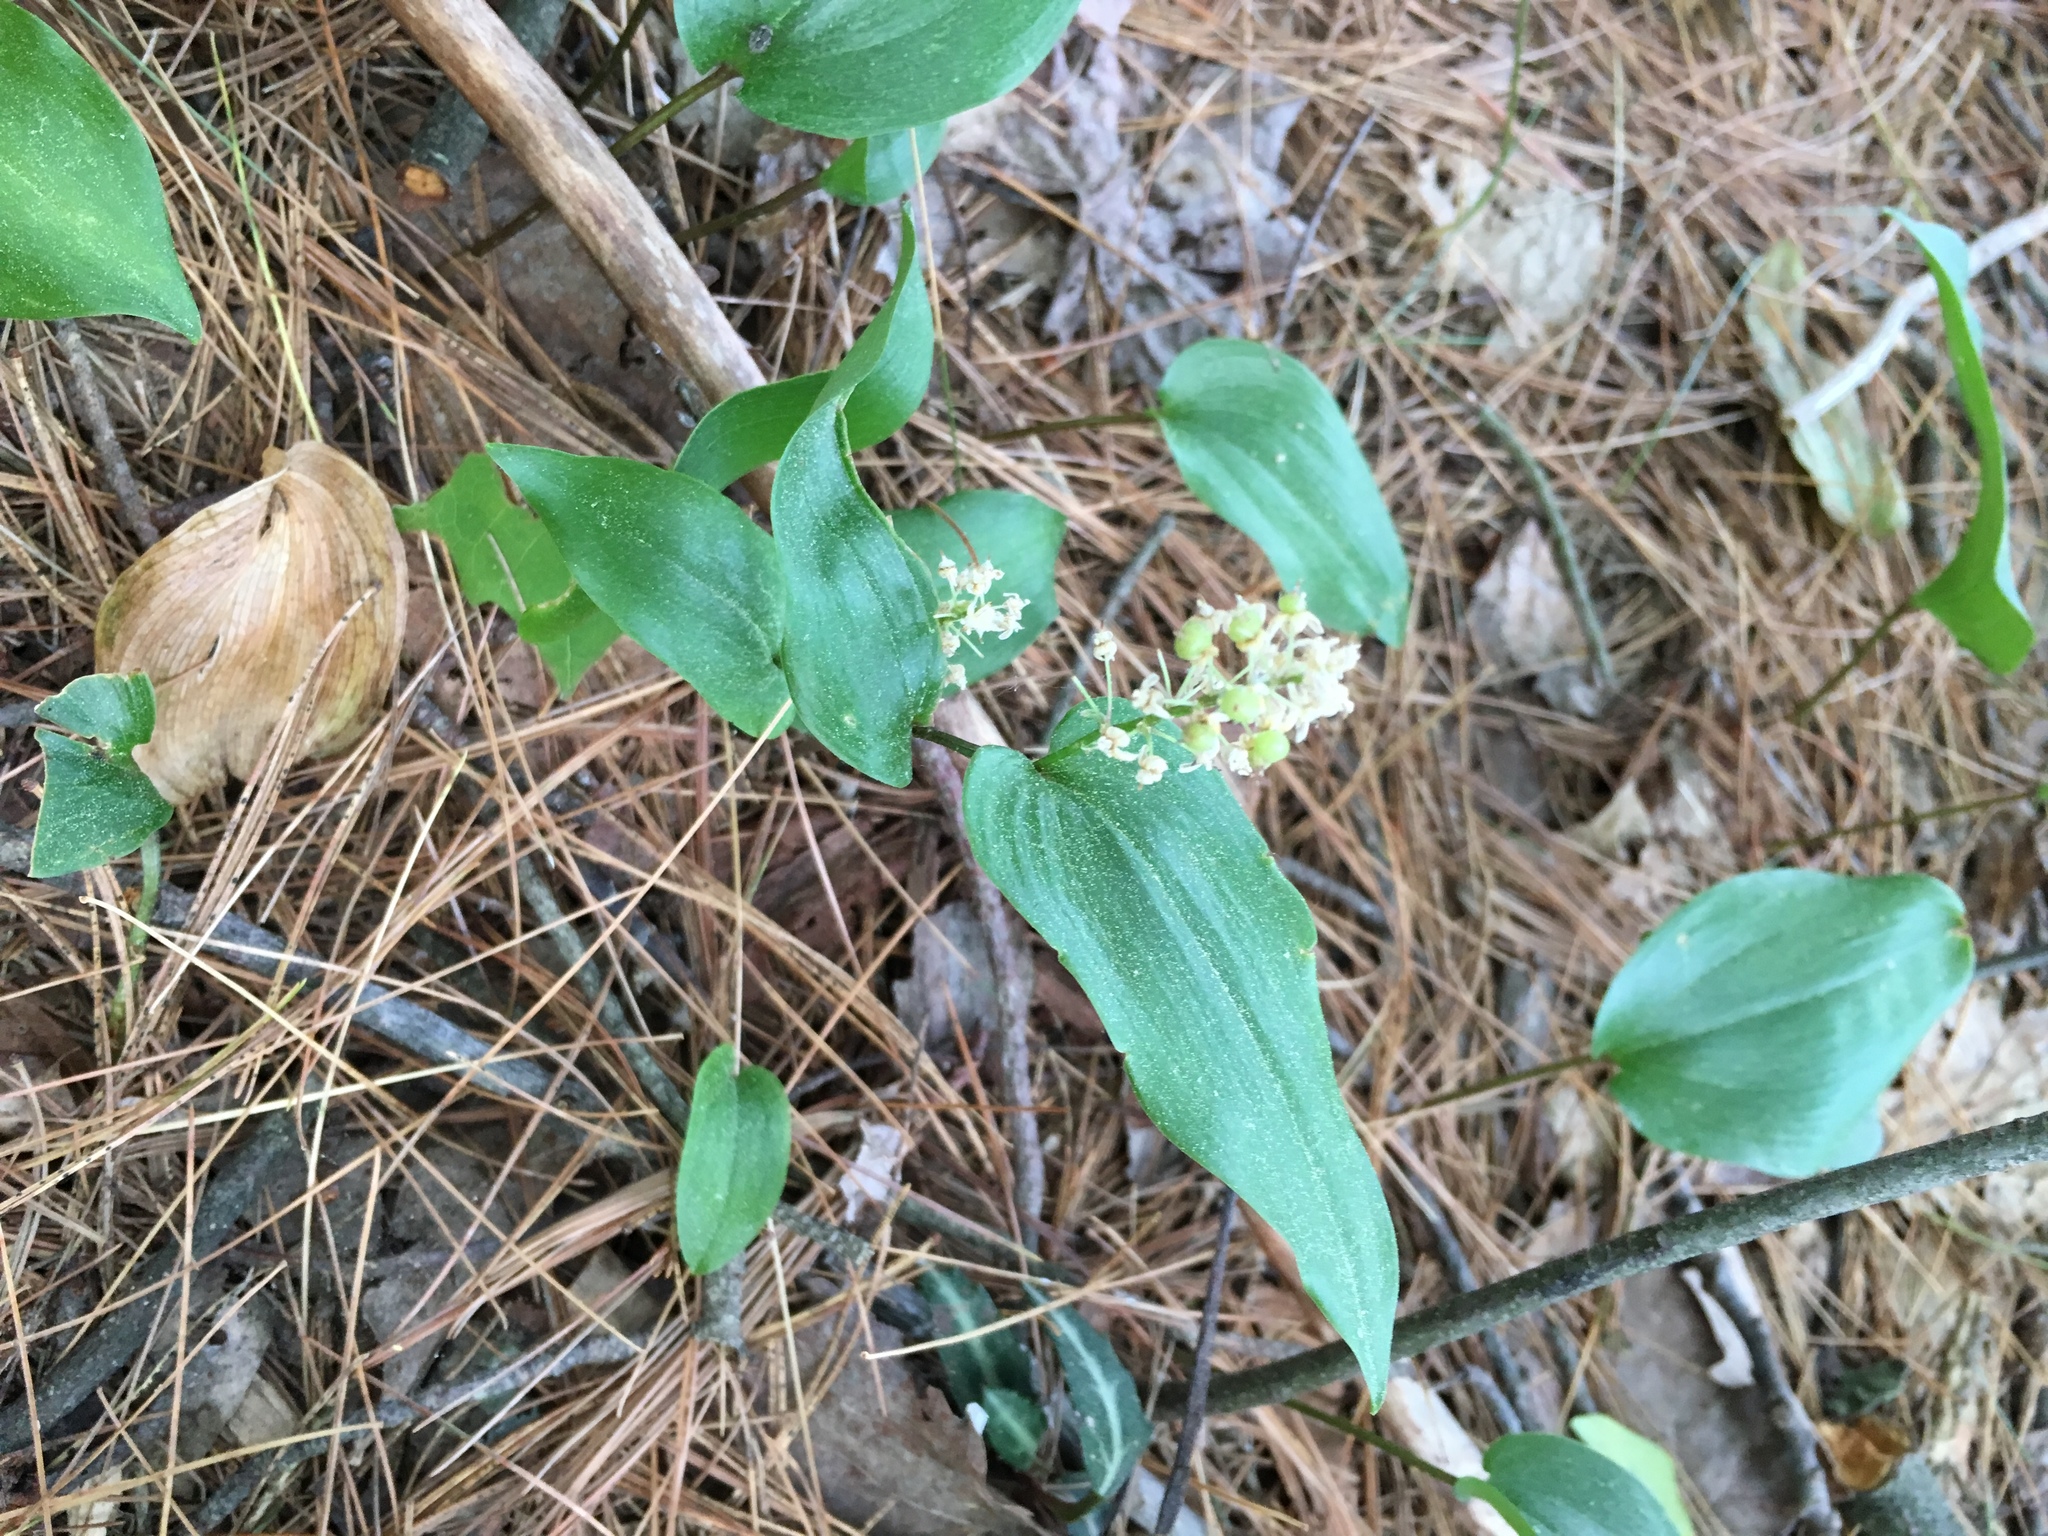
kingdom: Plantae
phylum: Tracheophyta
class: Liliopsida
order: Asparagales
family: Asparagaceae
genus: Maianthemum
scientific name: Maianthemum canadense
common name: False lily-of-the-valley
